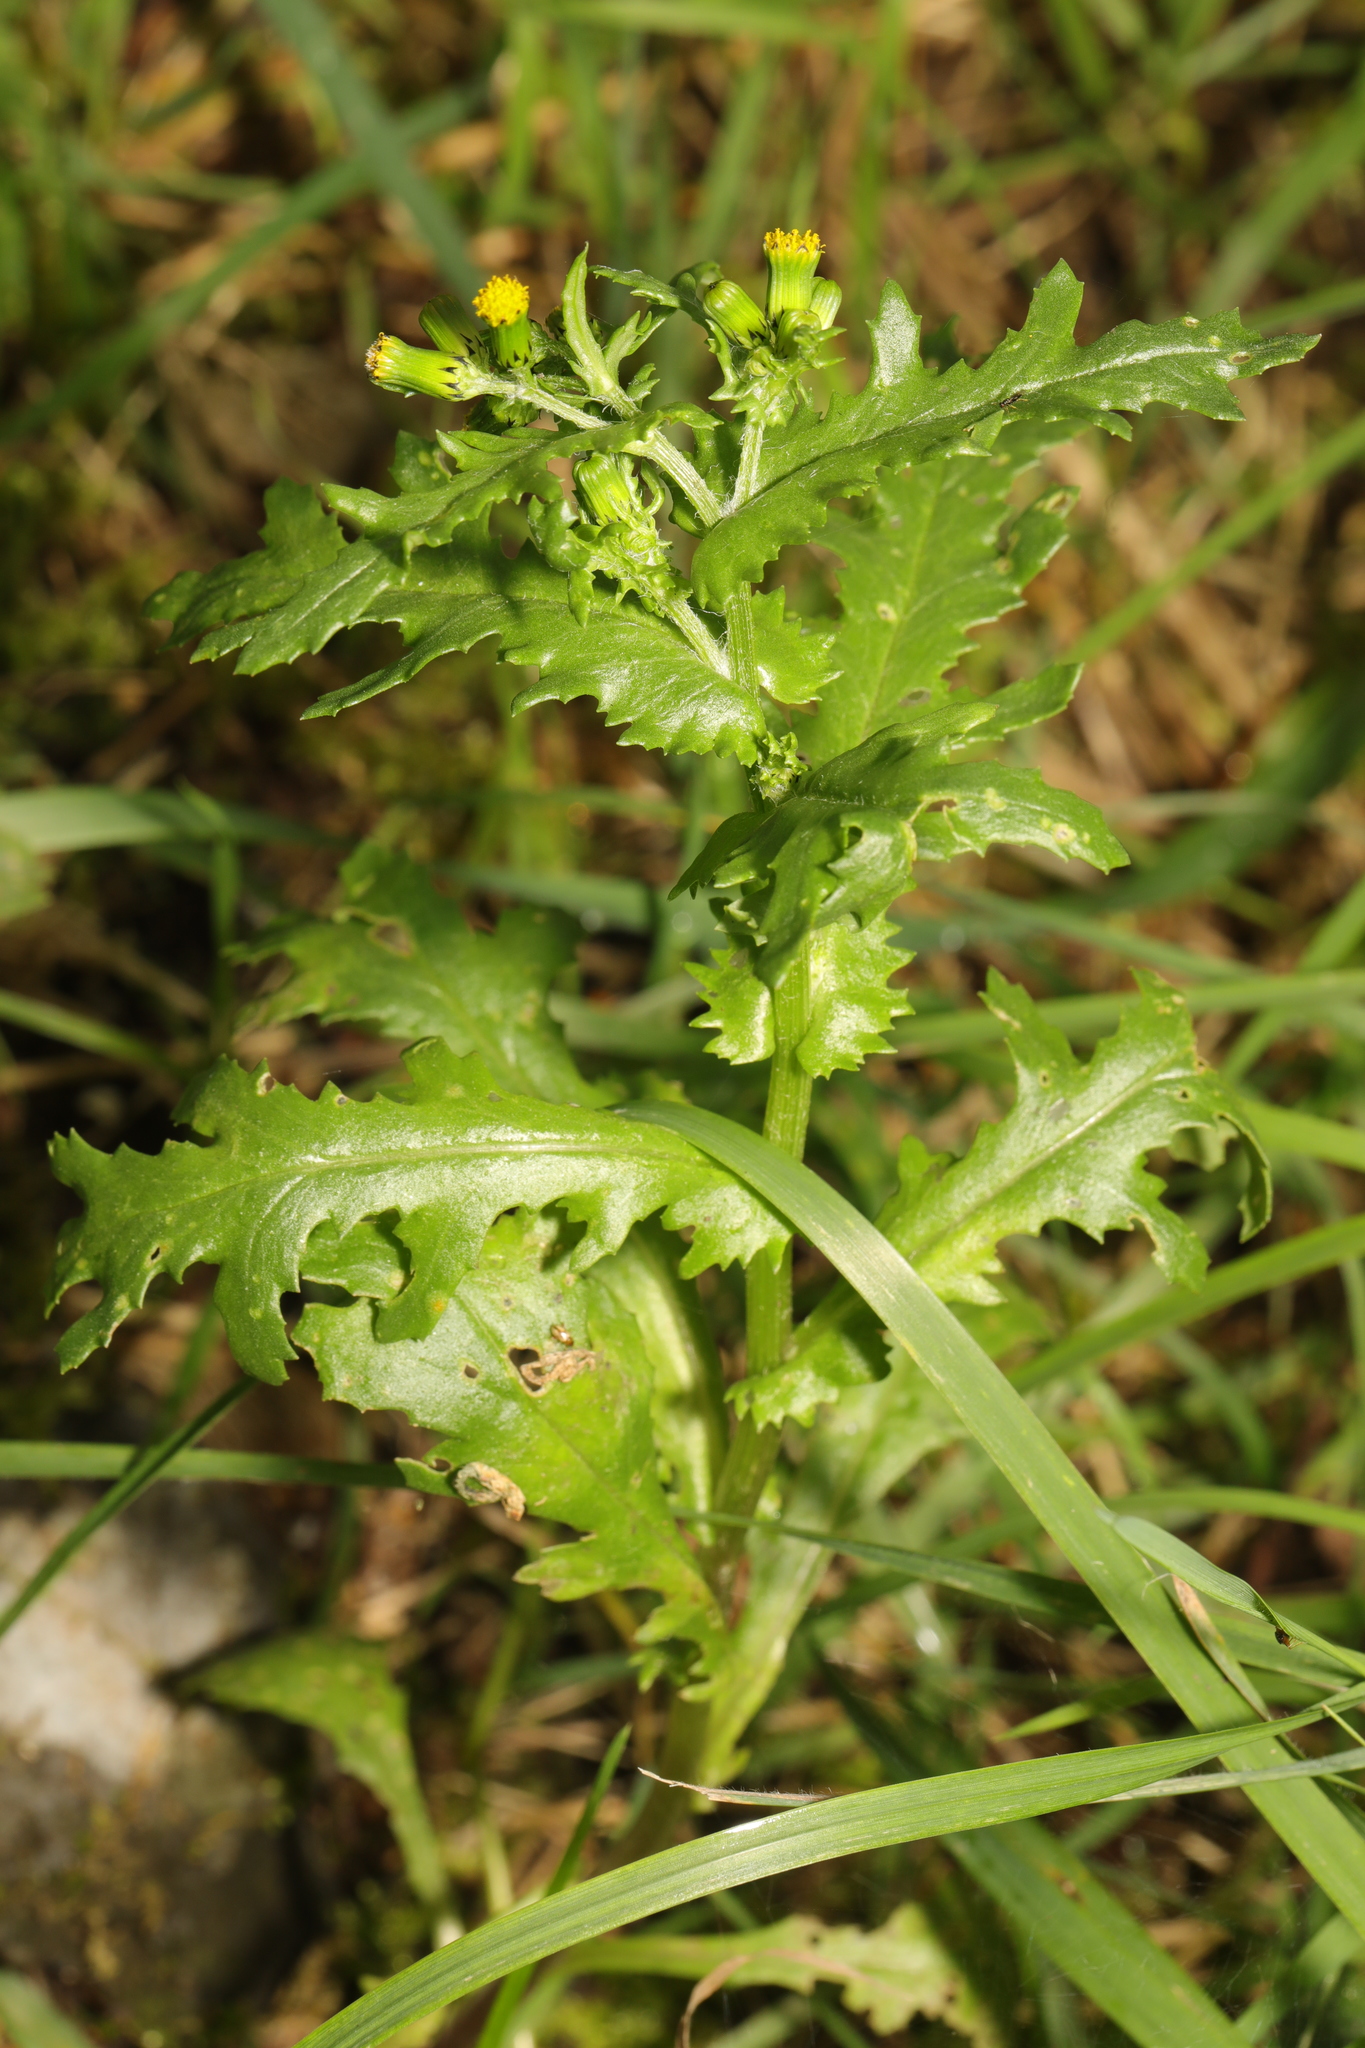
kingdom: Plantae
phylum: Tracheophyta
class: Magnoliopsida
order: Asterales
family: Asteraceae
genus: Senecio
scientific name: Senecio vulgaris
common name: Old-man-in-the-spring
